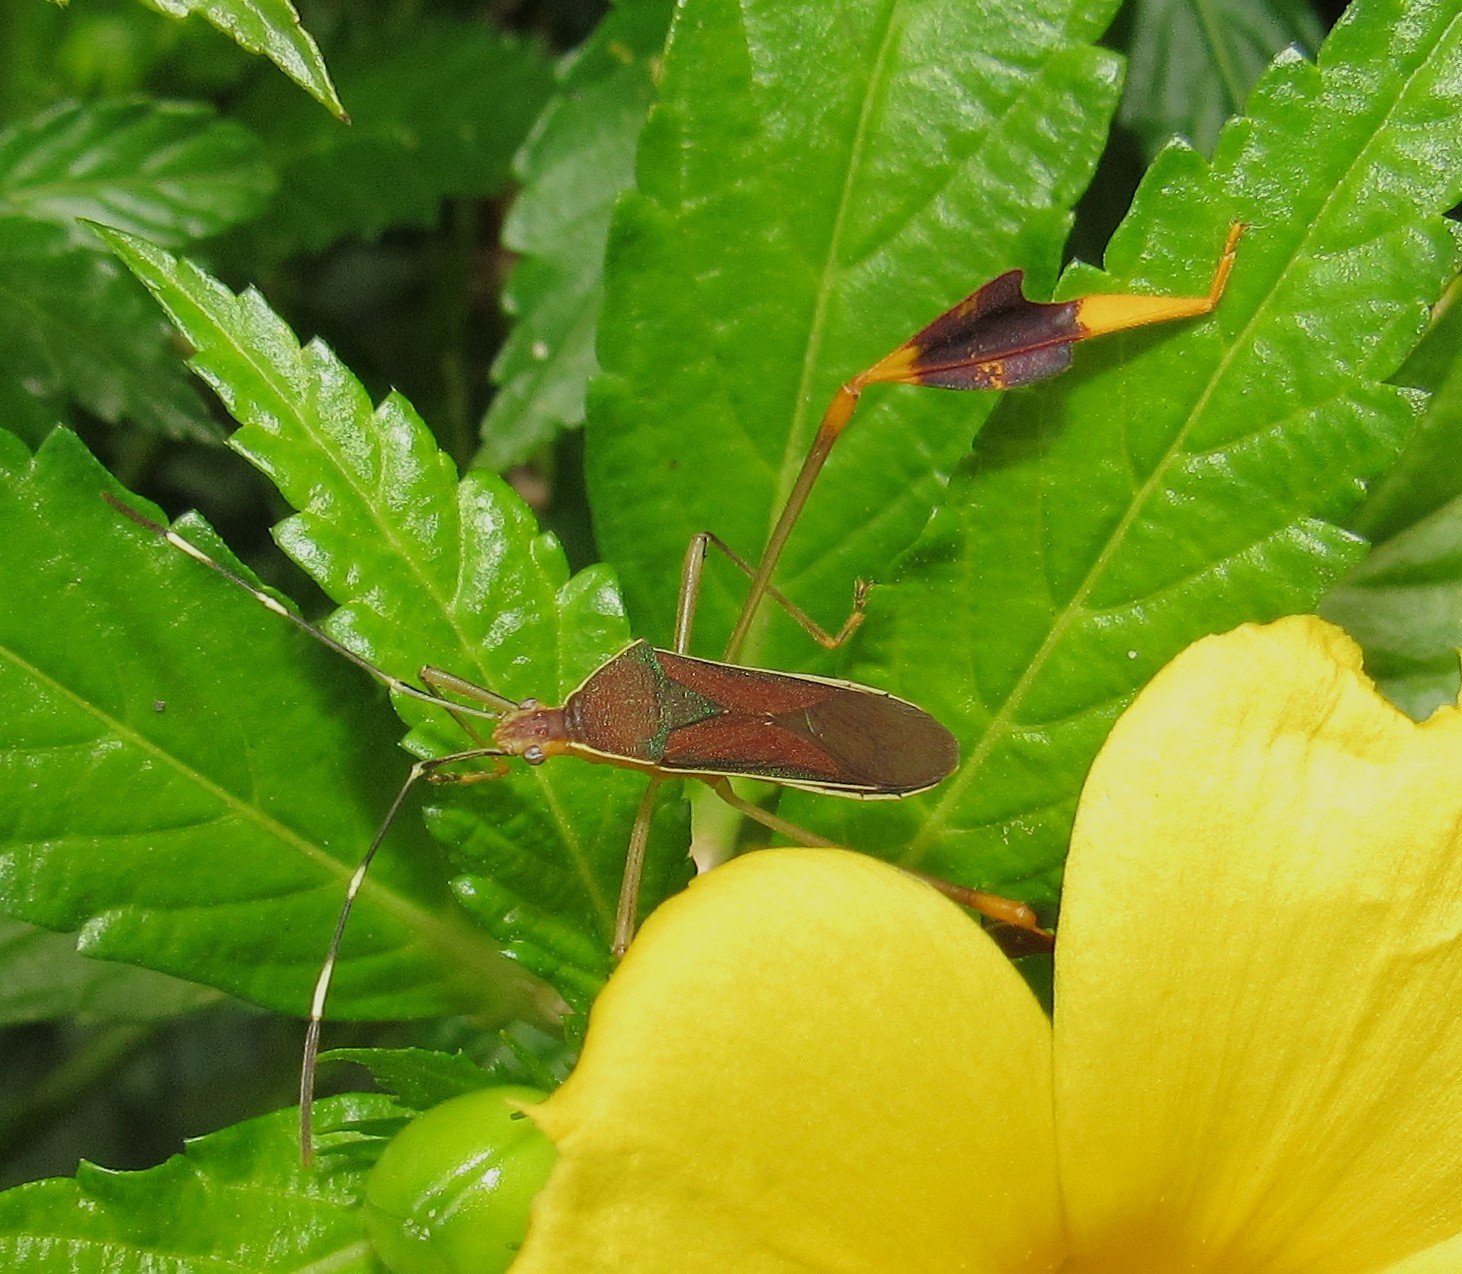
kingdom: Animalia
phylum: Arthropoda
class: Insecta
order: Hemiptera
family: Coreidae
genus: Anisoscelis
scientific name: Anisoscelis marginellus
